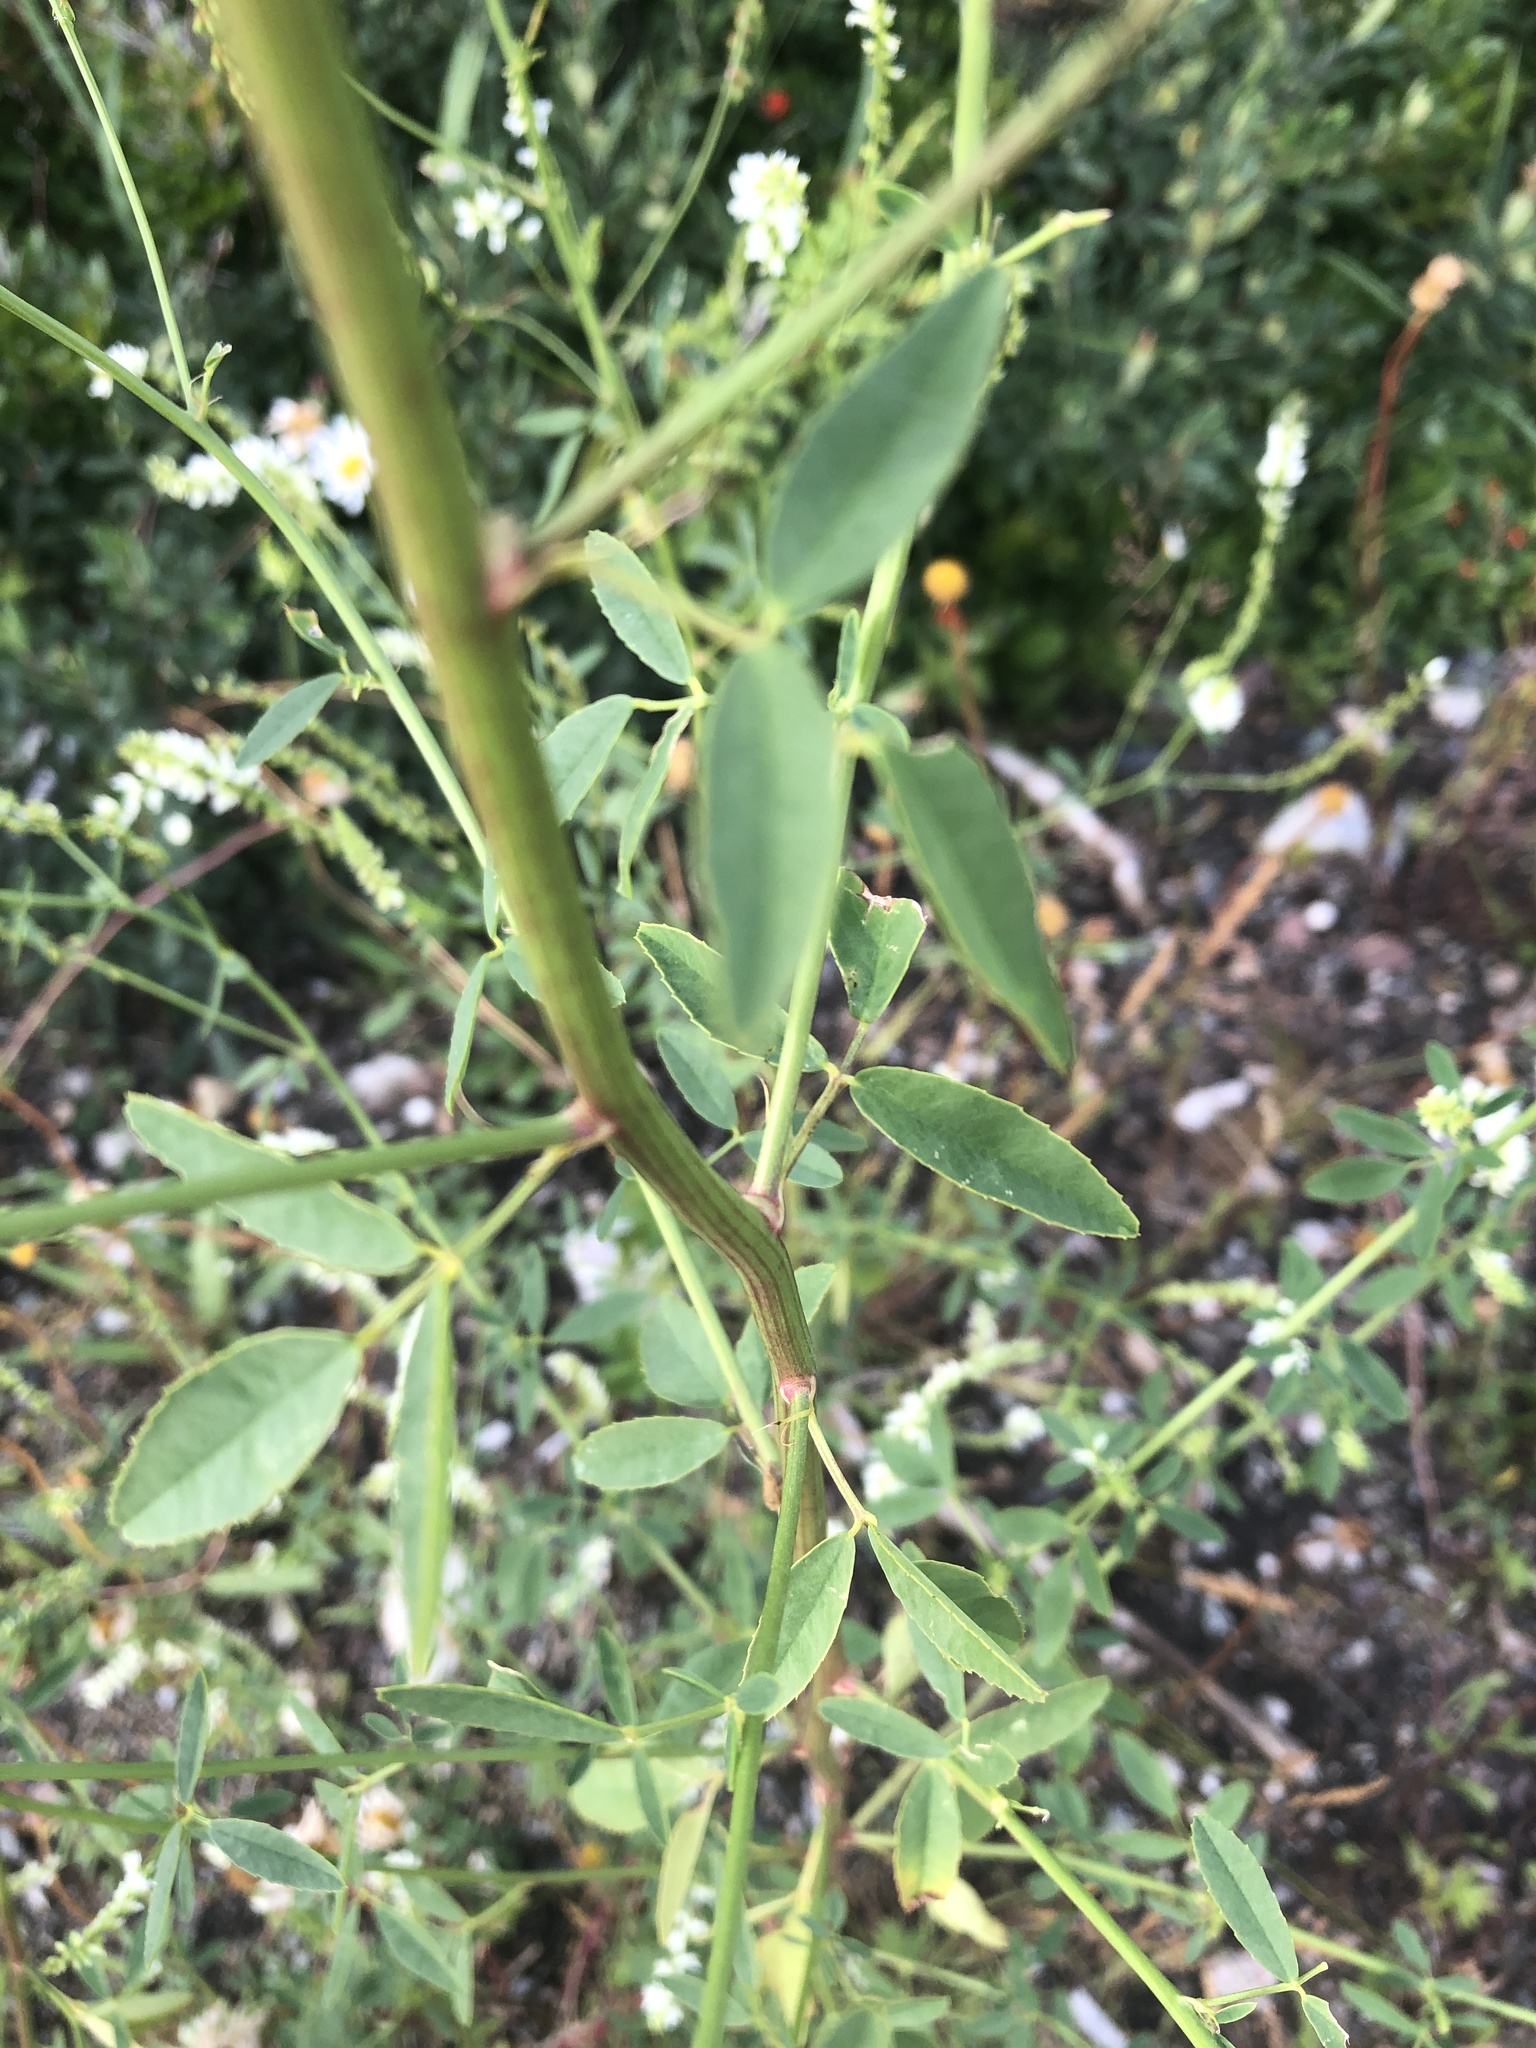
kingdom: Plantae
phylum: Tracheophyta
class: Magnoliopsida
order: Fabales
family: Fabaceae
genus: Melilotus
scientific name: Melilotus albus
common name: White melilot
